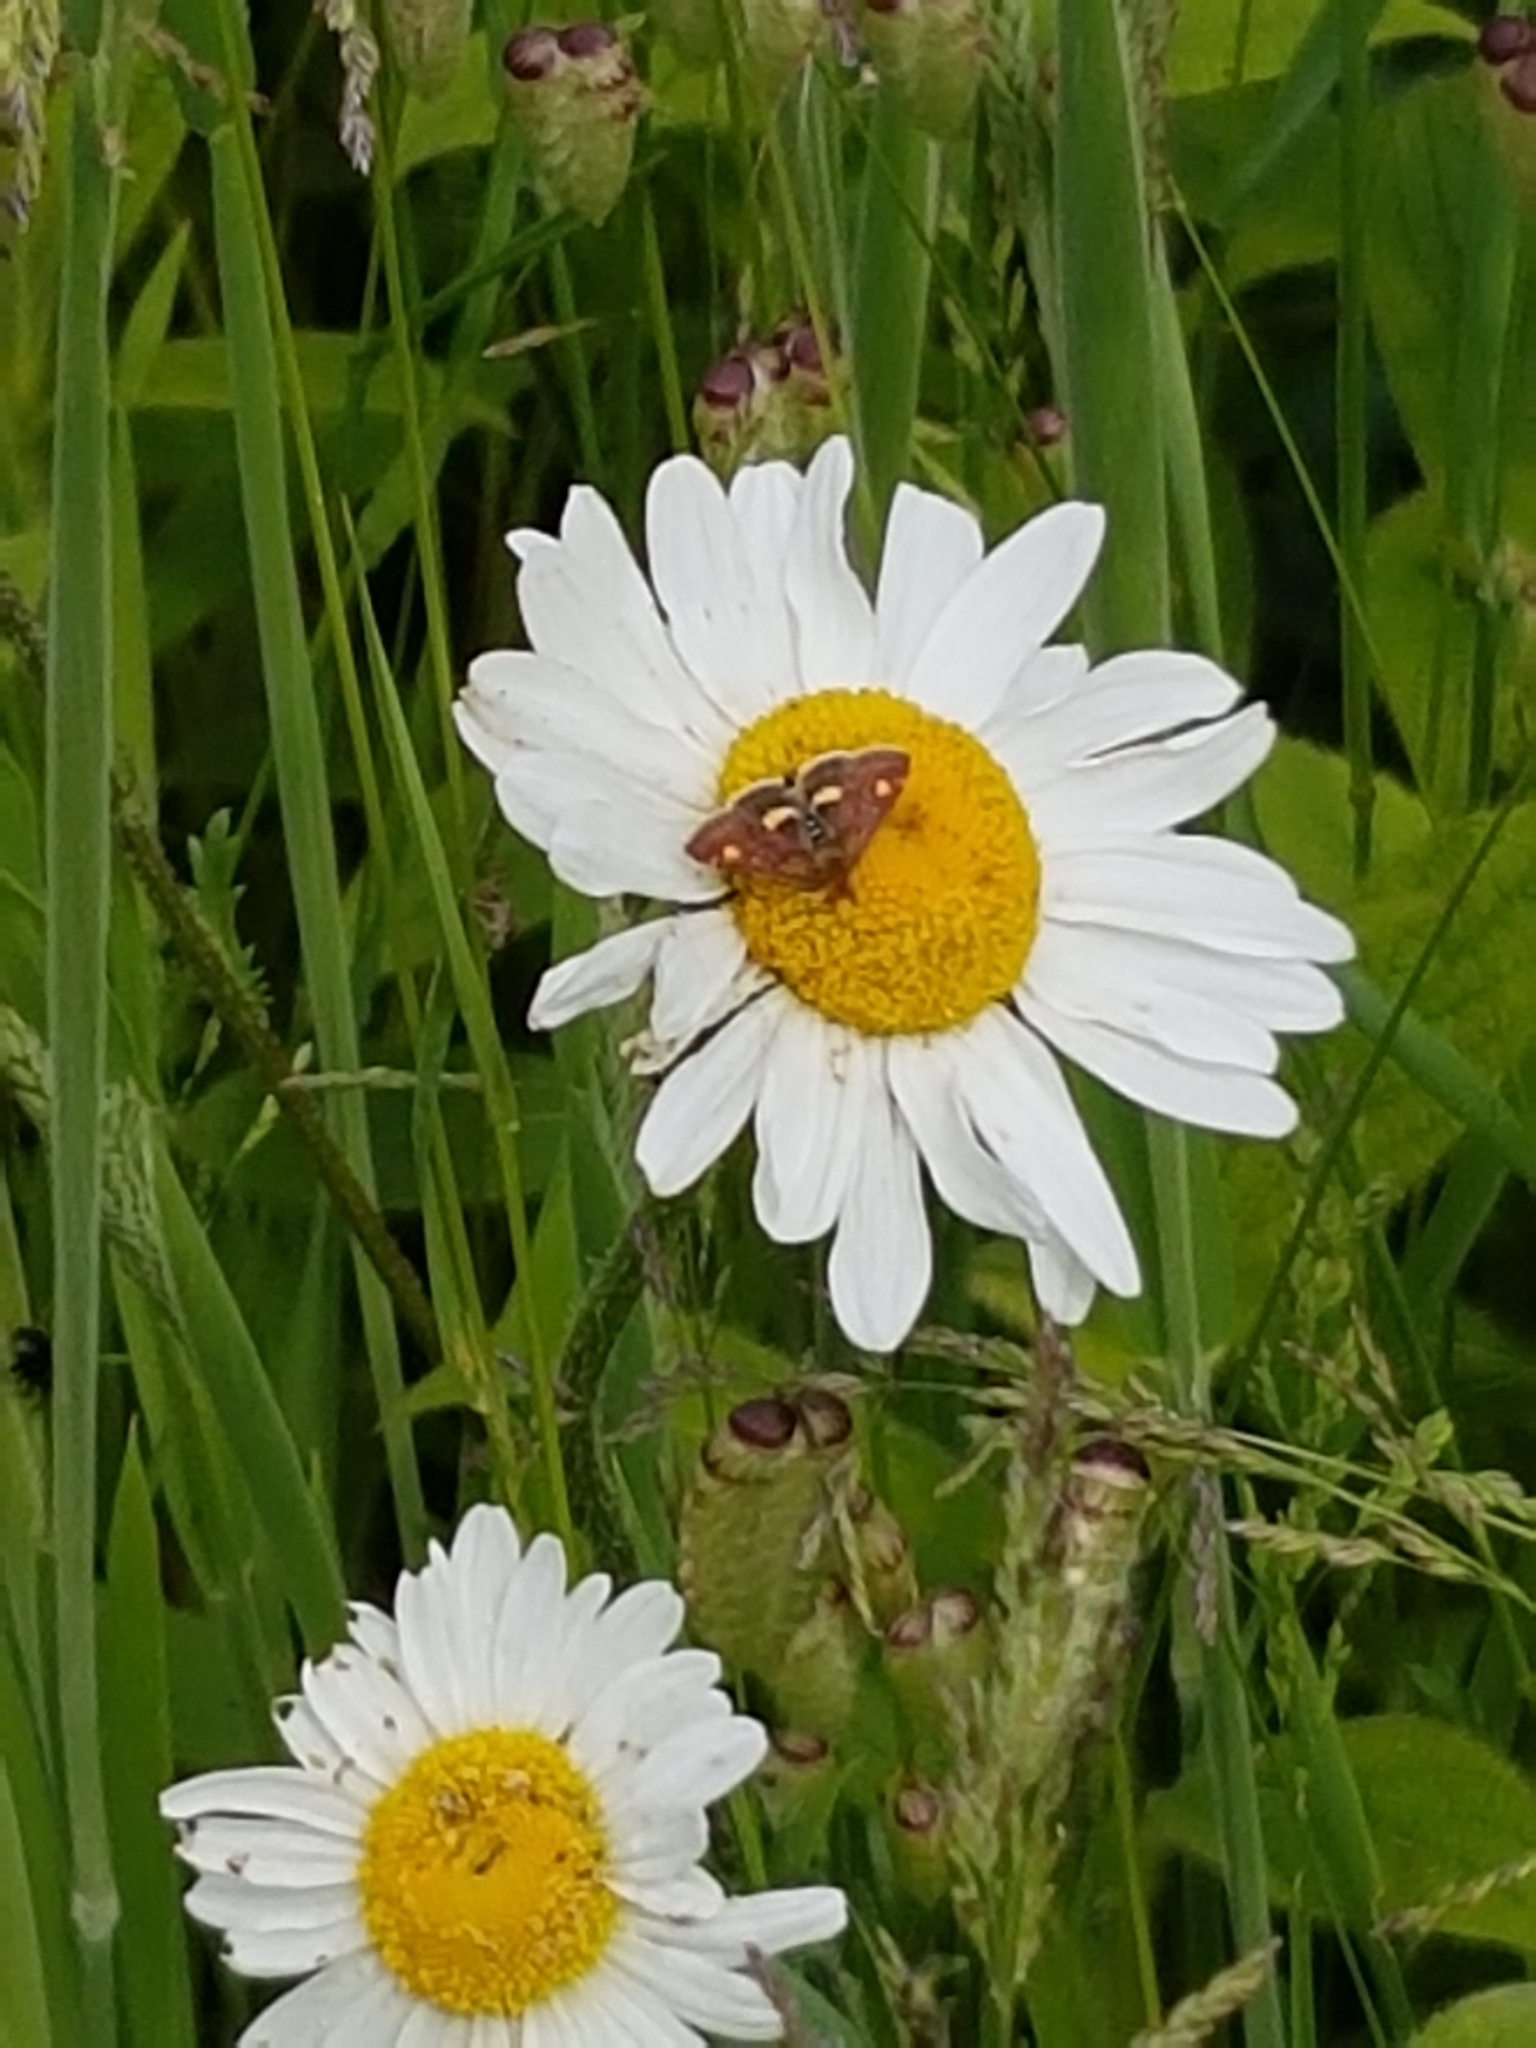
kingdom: Animalia
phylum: Arthropoda
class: Insecta
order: Lepidoptera
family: Crambidae
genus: Pyrausta
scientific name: Pyrausta aurata
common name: Small purple & gold
